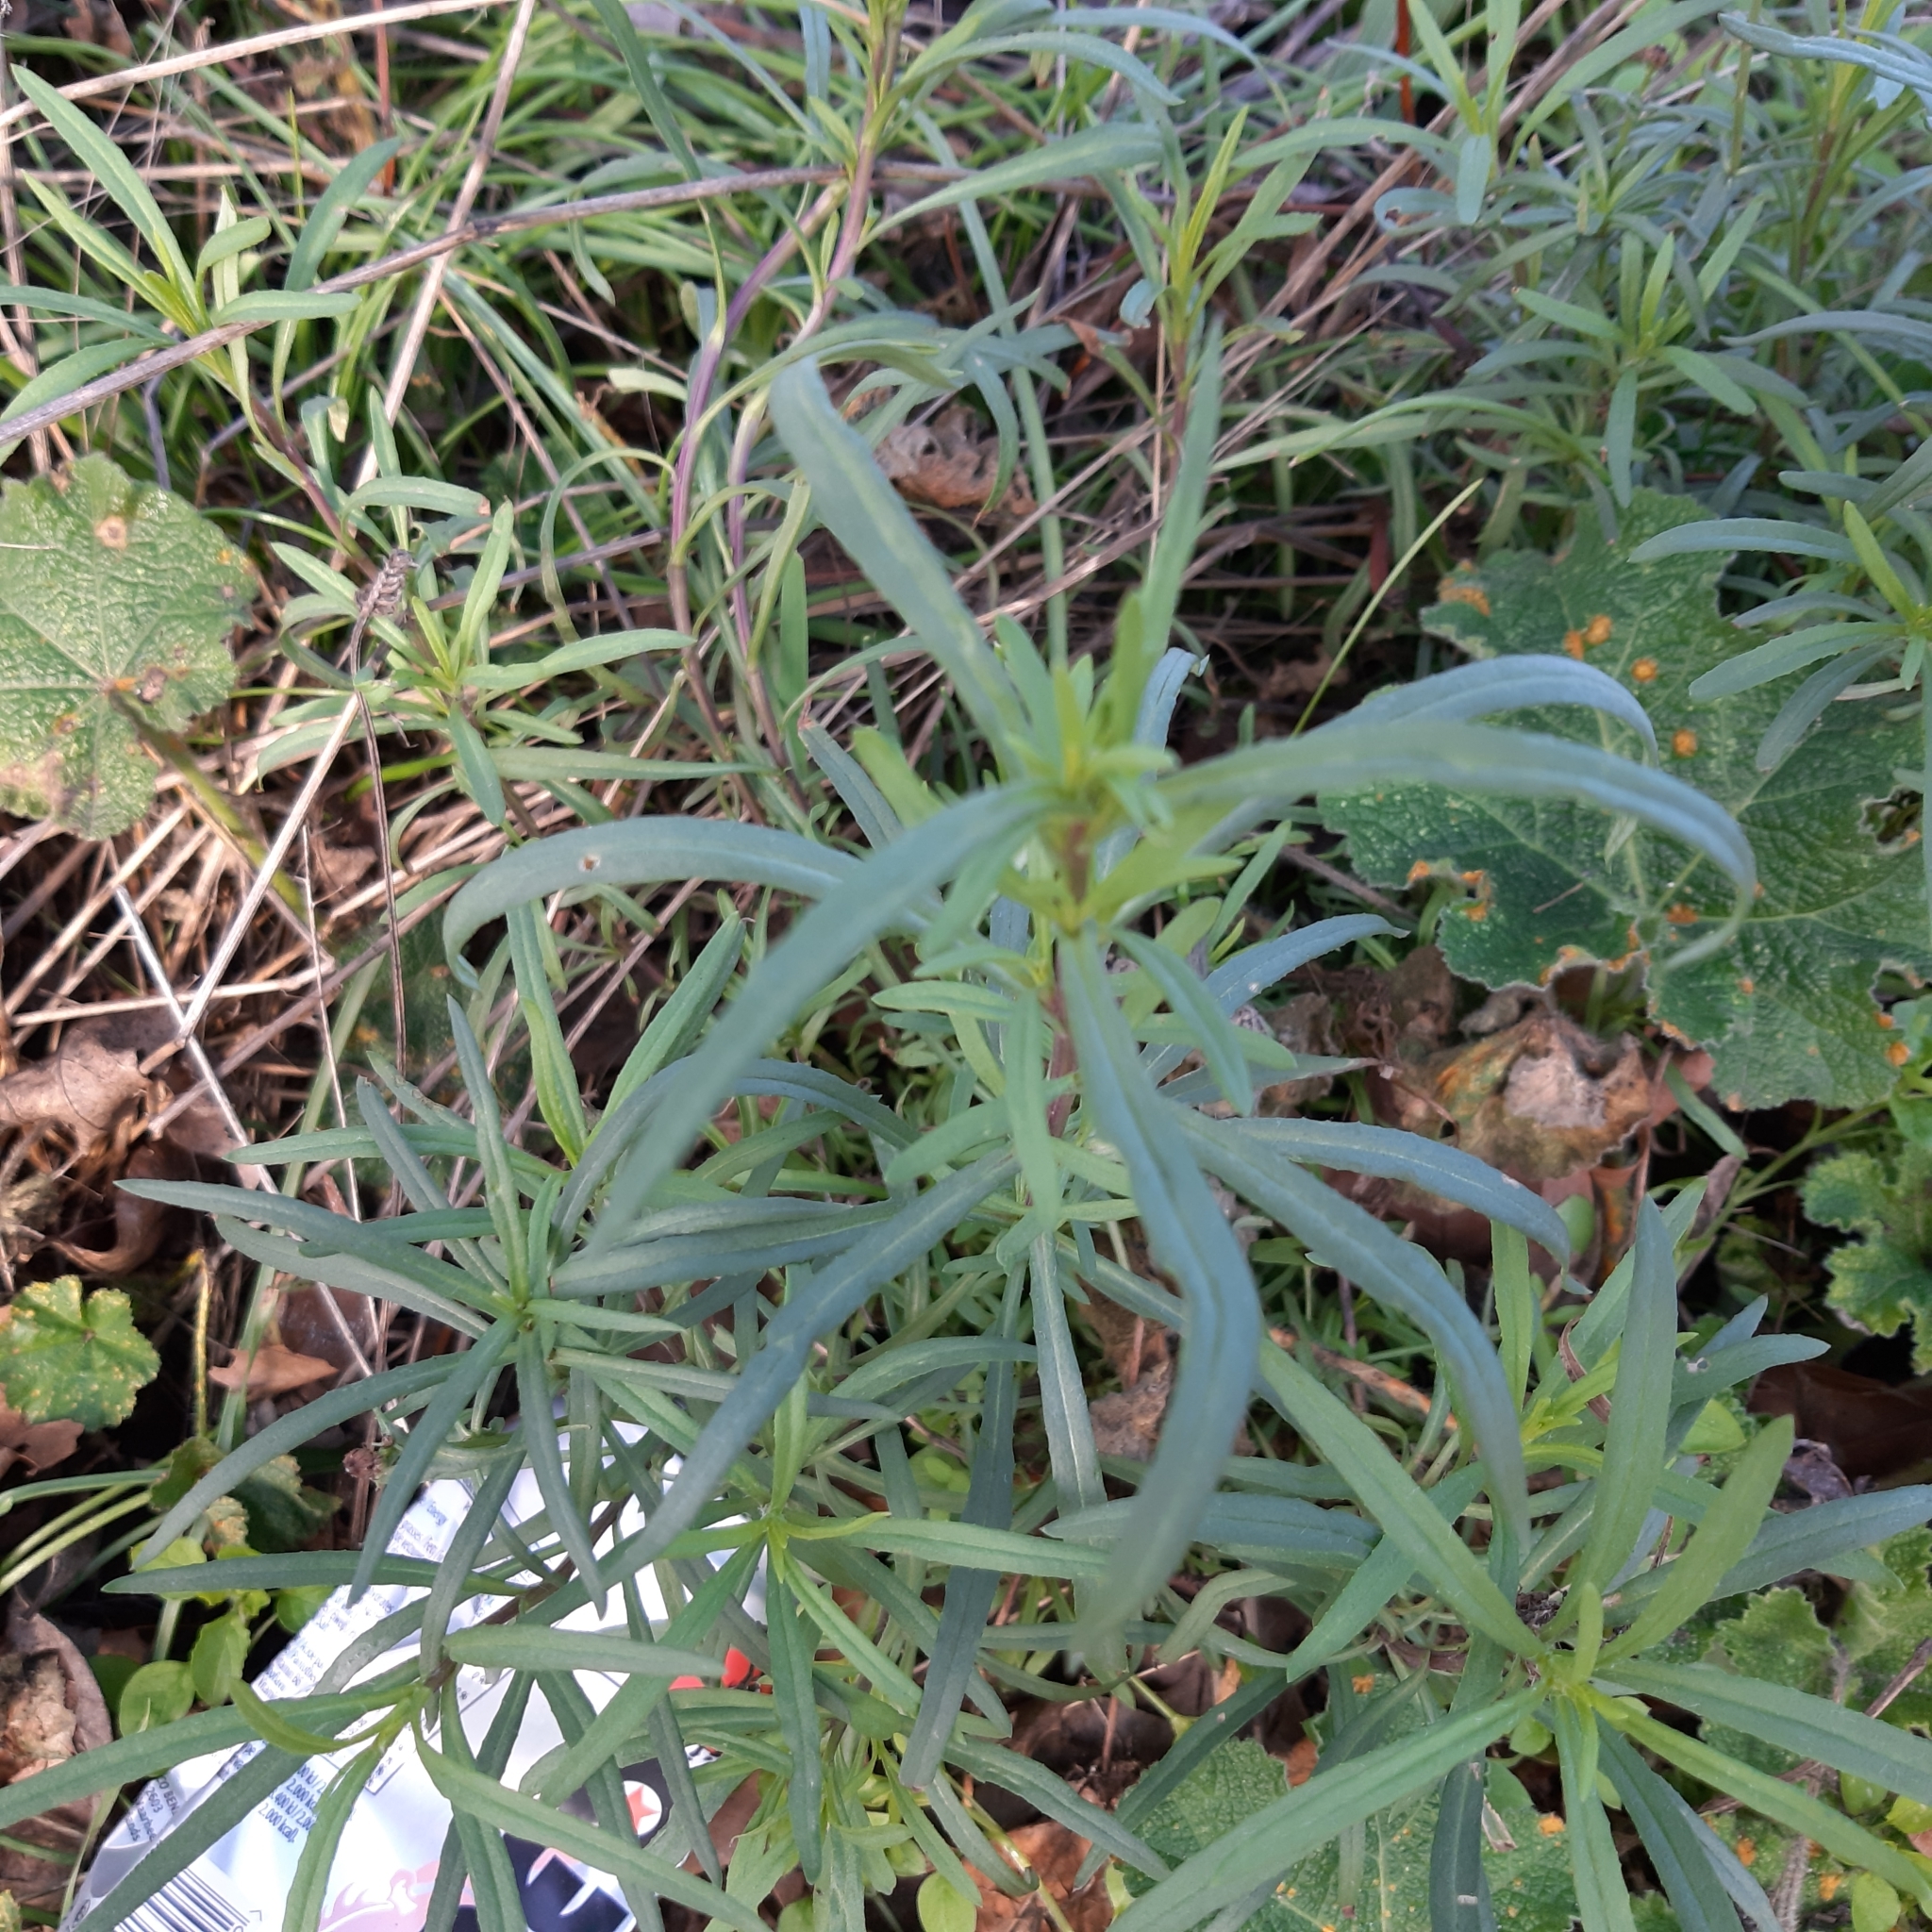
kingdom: Plantae
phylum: Tracheophyta
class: Magnoliopsida
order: Asterales
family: Asteraceae
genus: Senecio
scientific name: Senecio inaequidens
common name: Narrow-leaved ragwort
